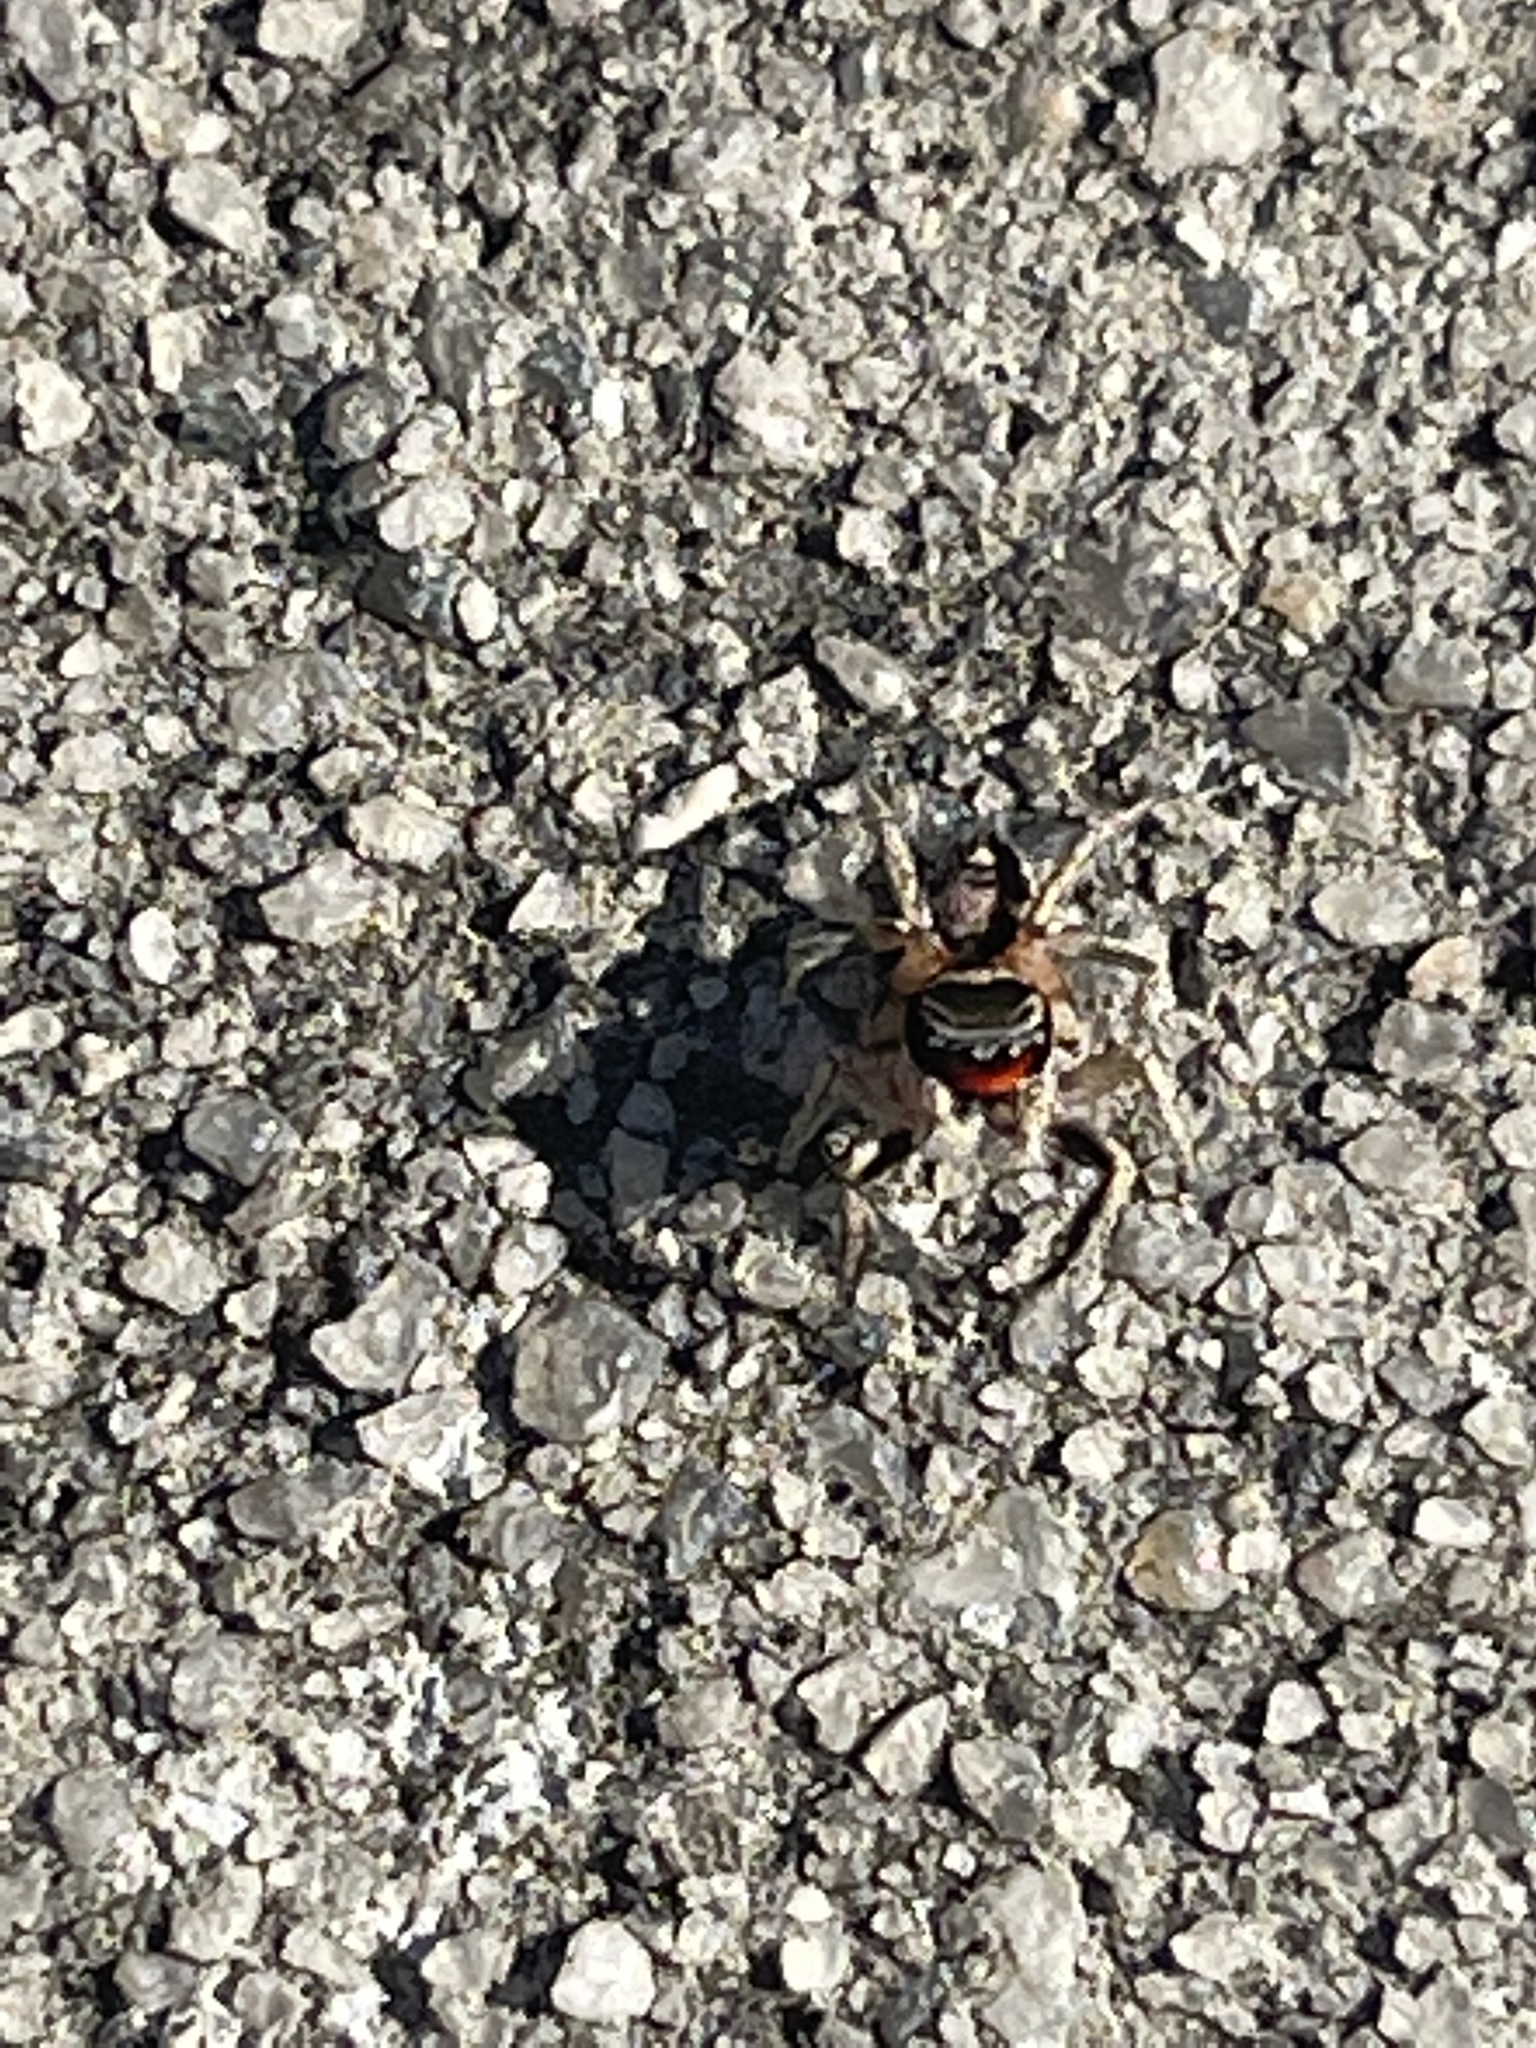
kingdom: Animalia
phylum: Arthropoda
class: Arachnida
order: Araneae
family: Salticidae
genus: Habronattus
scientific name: Habronattus coecatus
